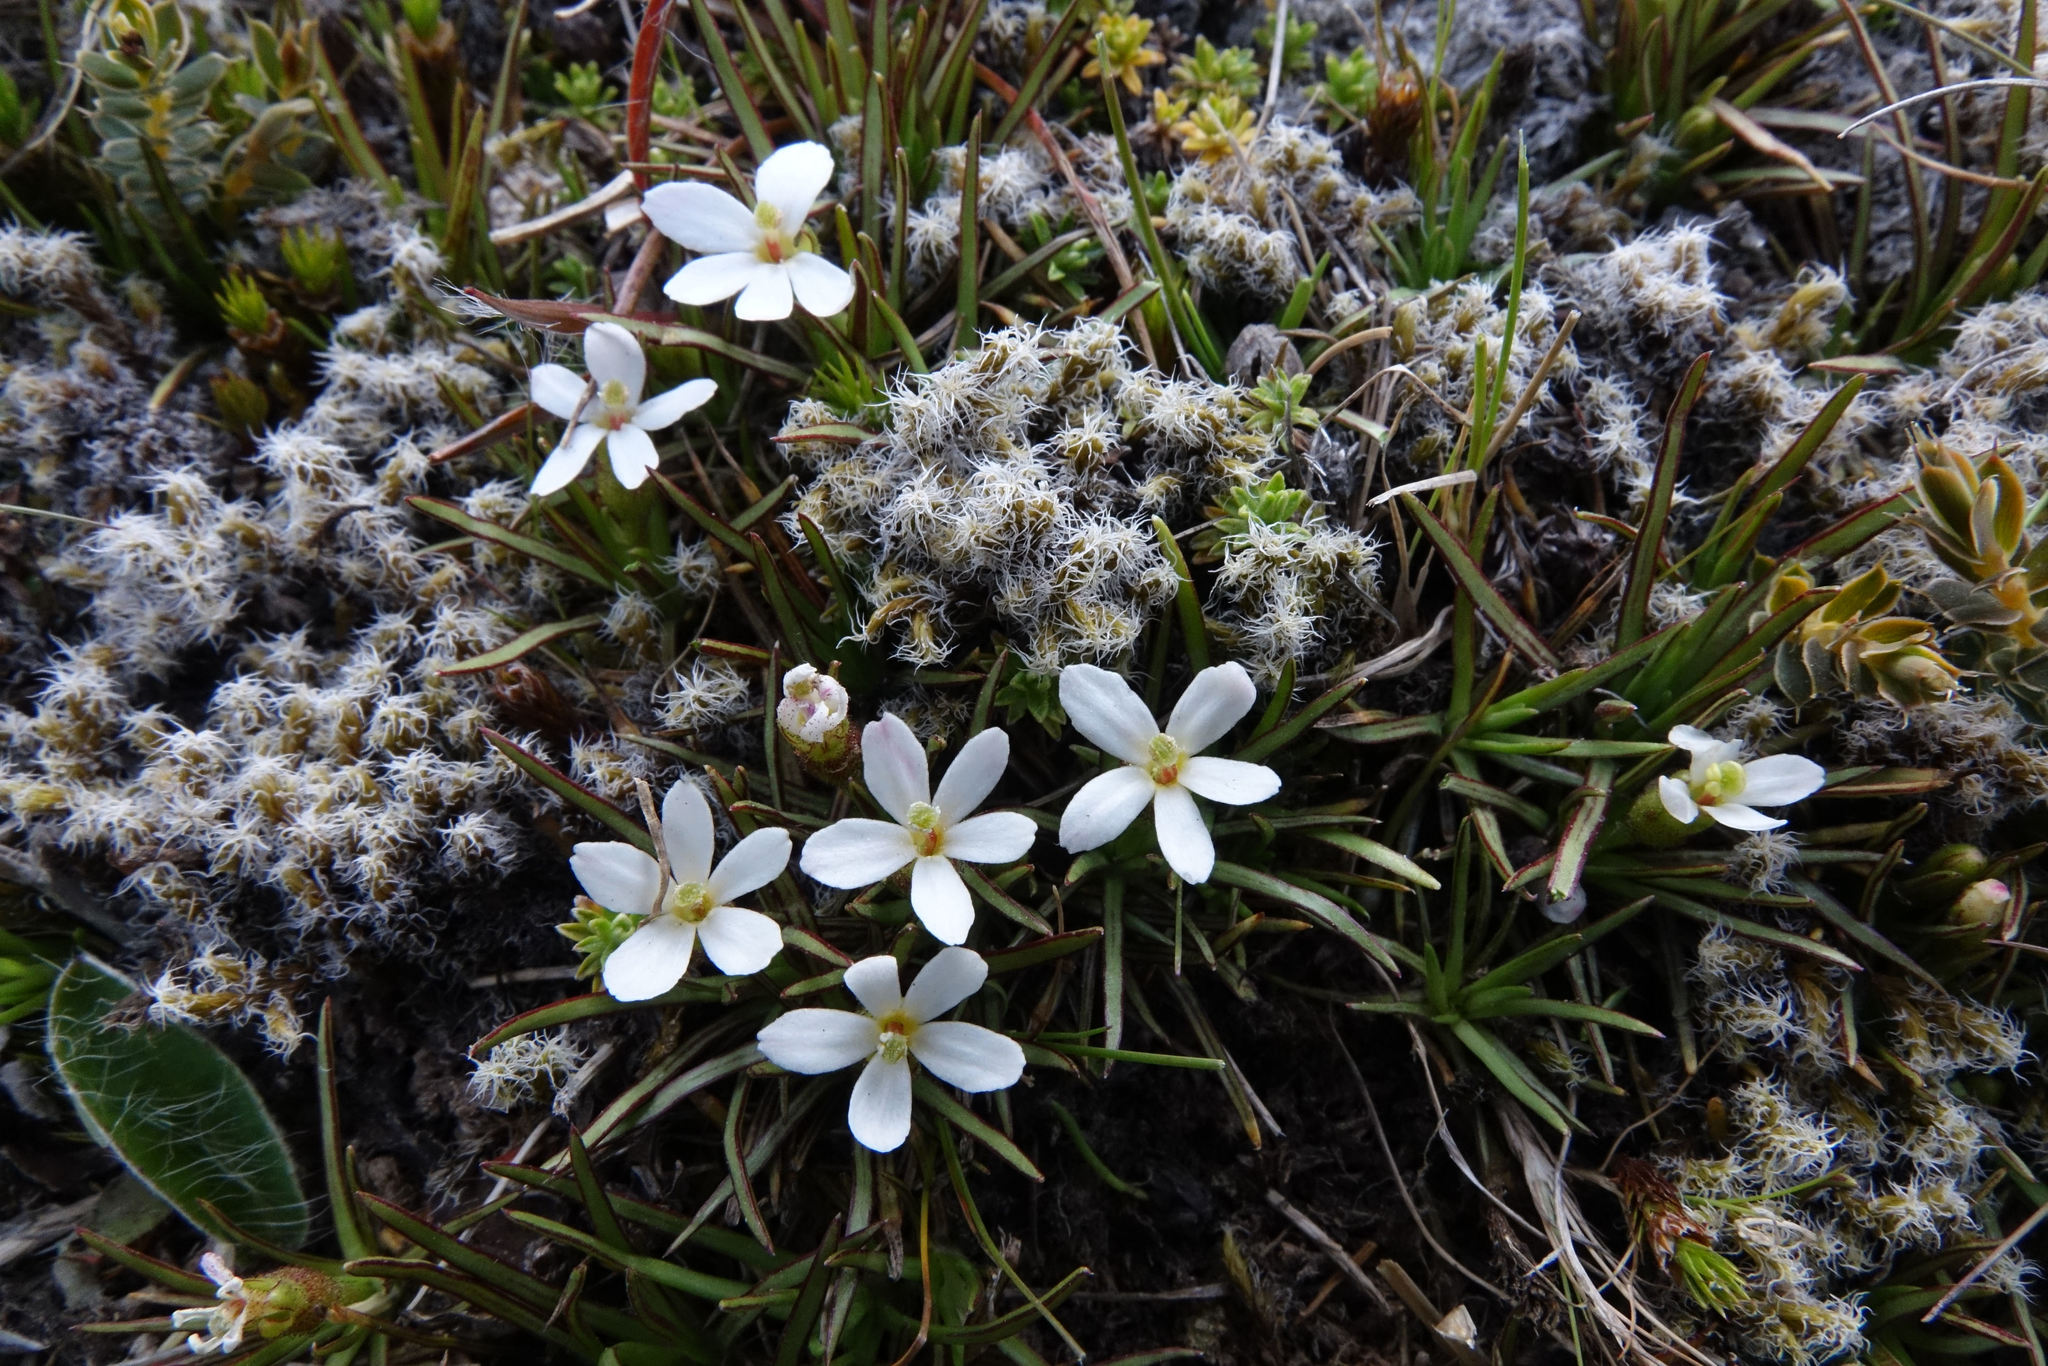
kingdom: Plantae
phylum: Tracheophyta
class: Magnoliopsida
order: Asterales
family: Stylidiaceae
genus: Oreostylidium
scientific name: Oreostylidium subulatum
